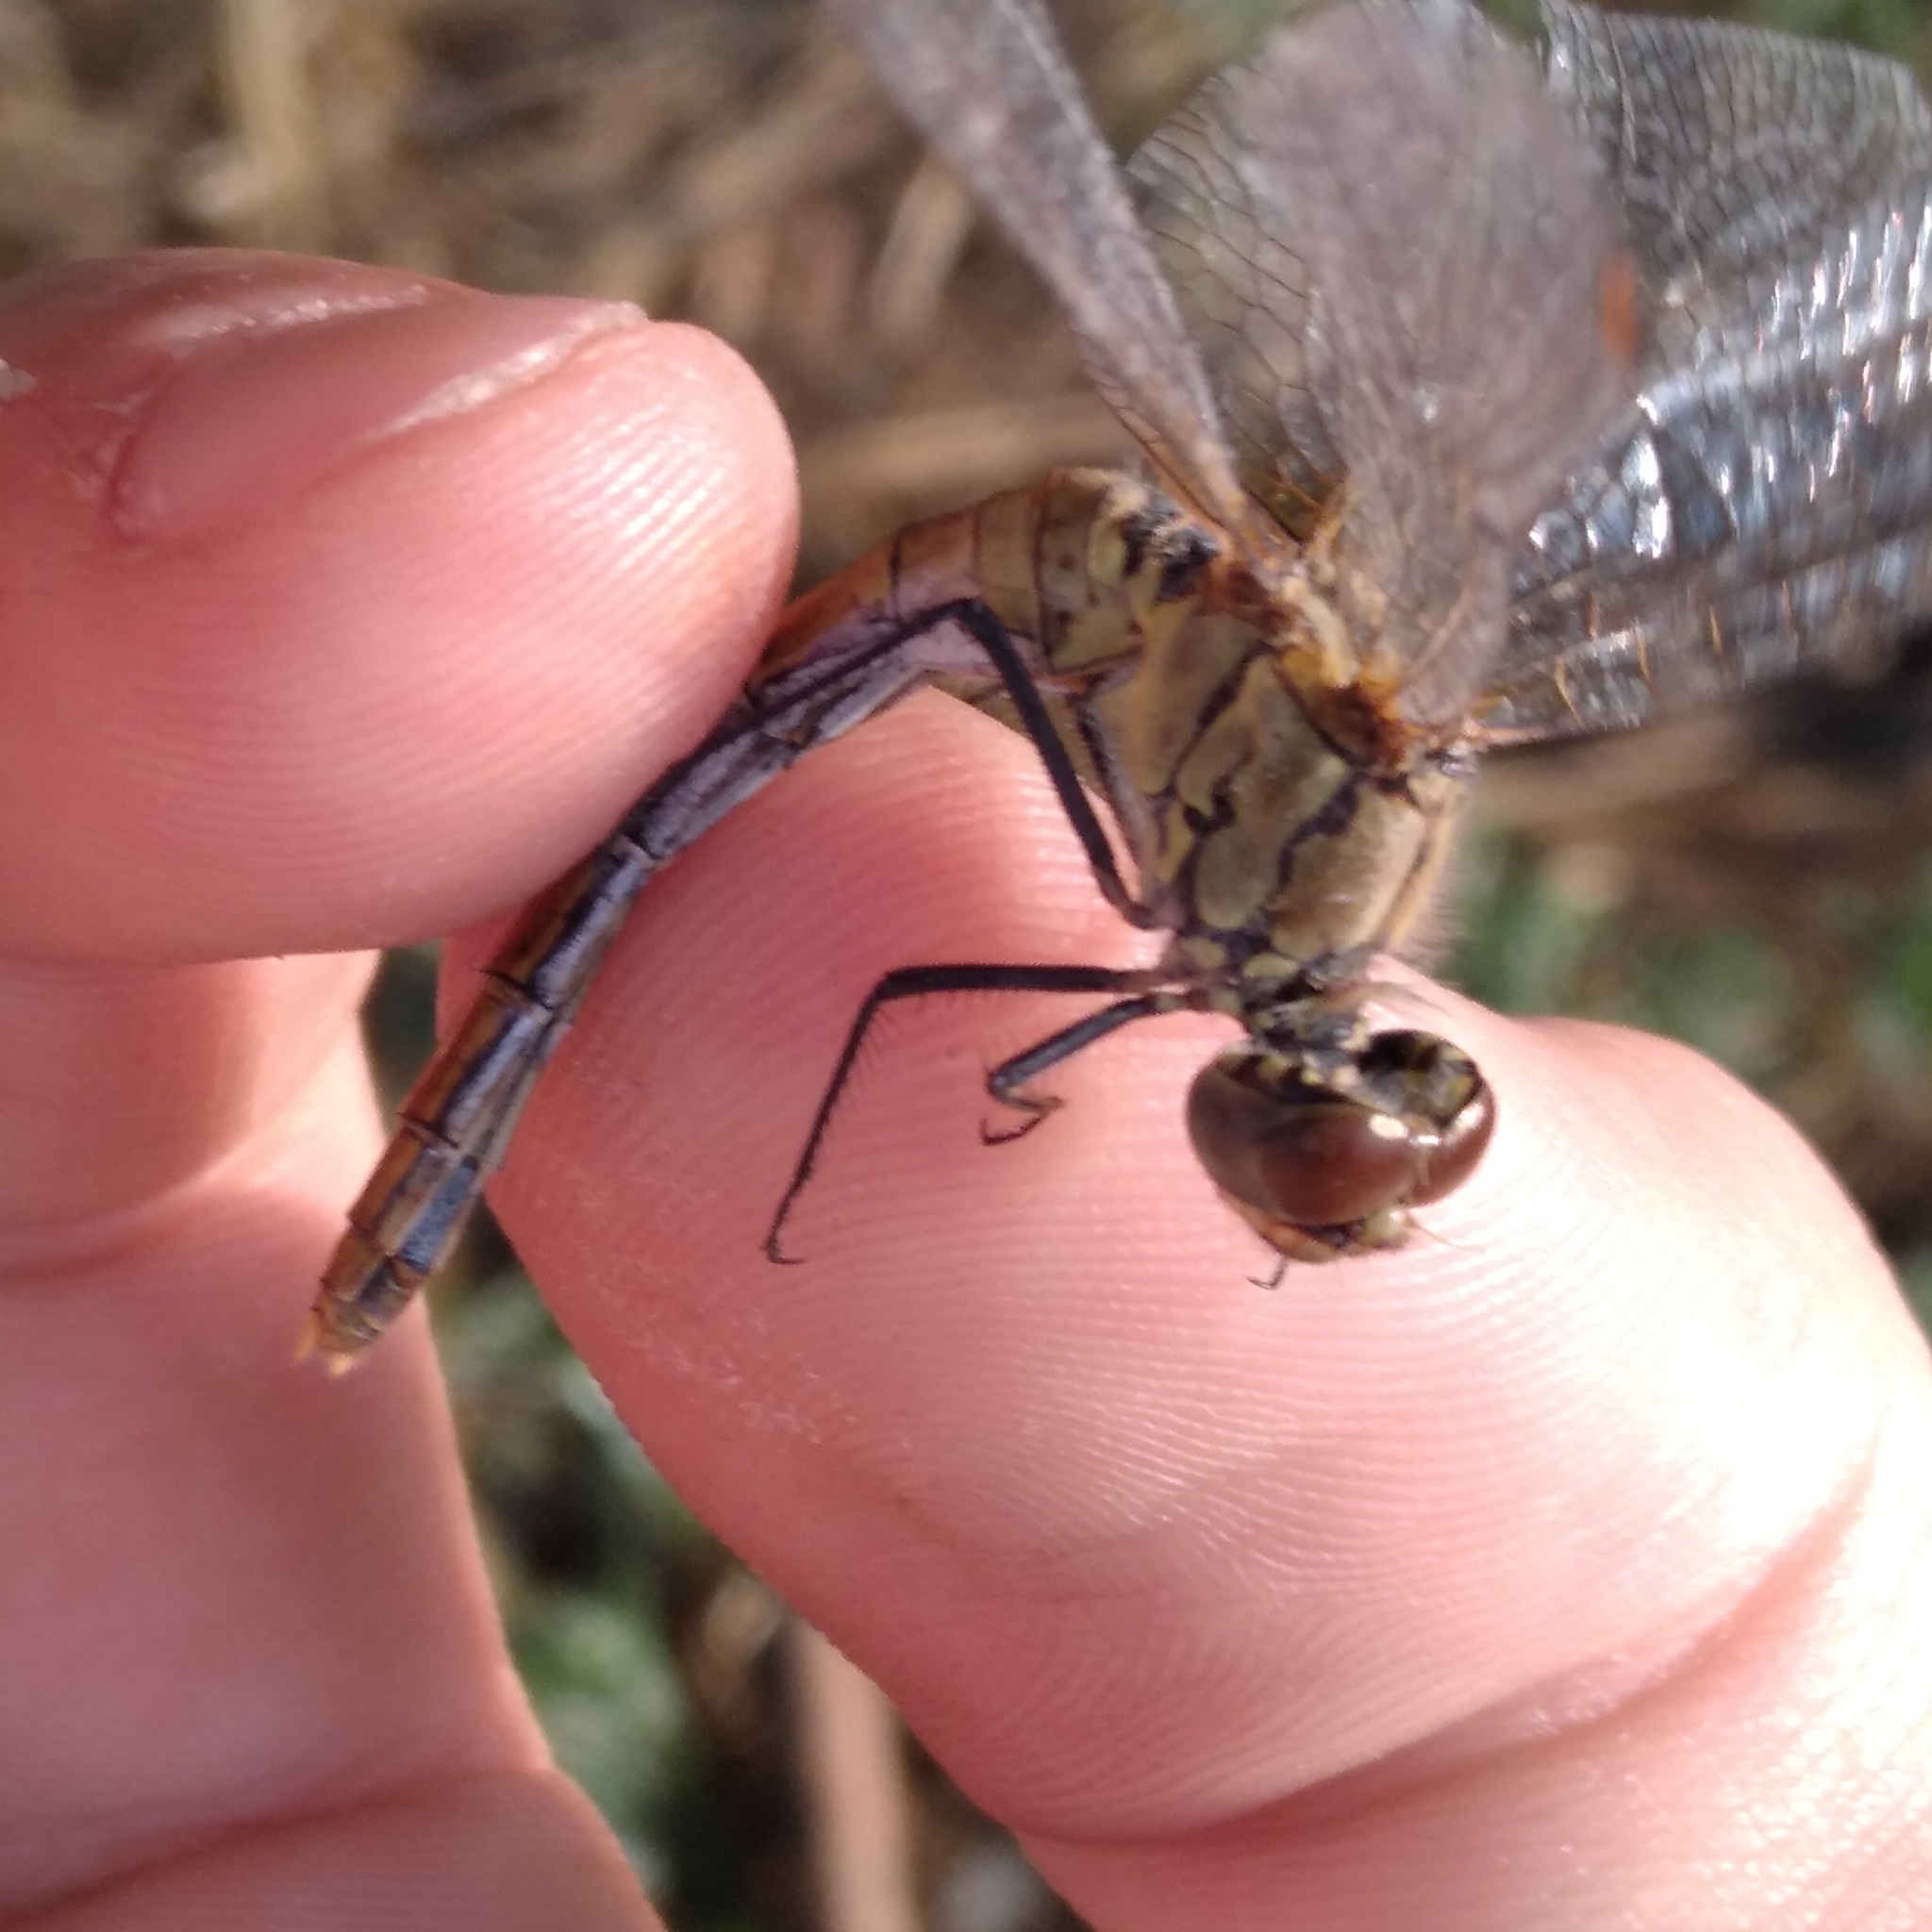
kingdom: Animalia
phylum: Arthropoda
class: Insecta
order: Odonata
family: Libellulidae
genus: Sympetrum
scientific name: Sympetrum sanguineum
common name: Ruddy darter
